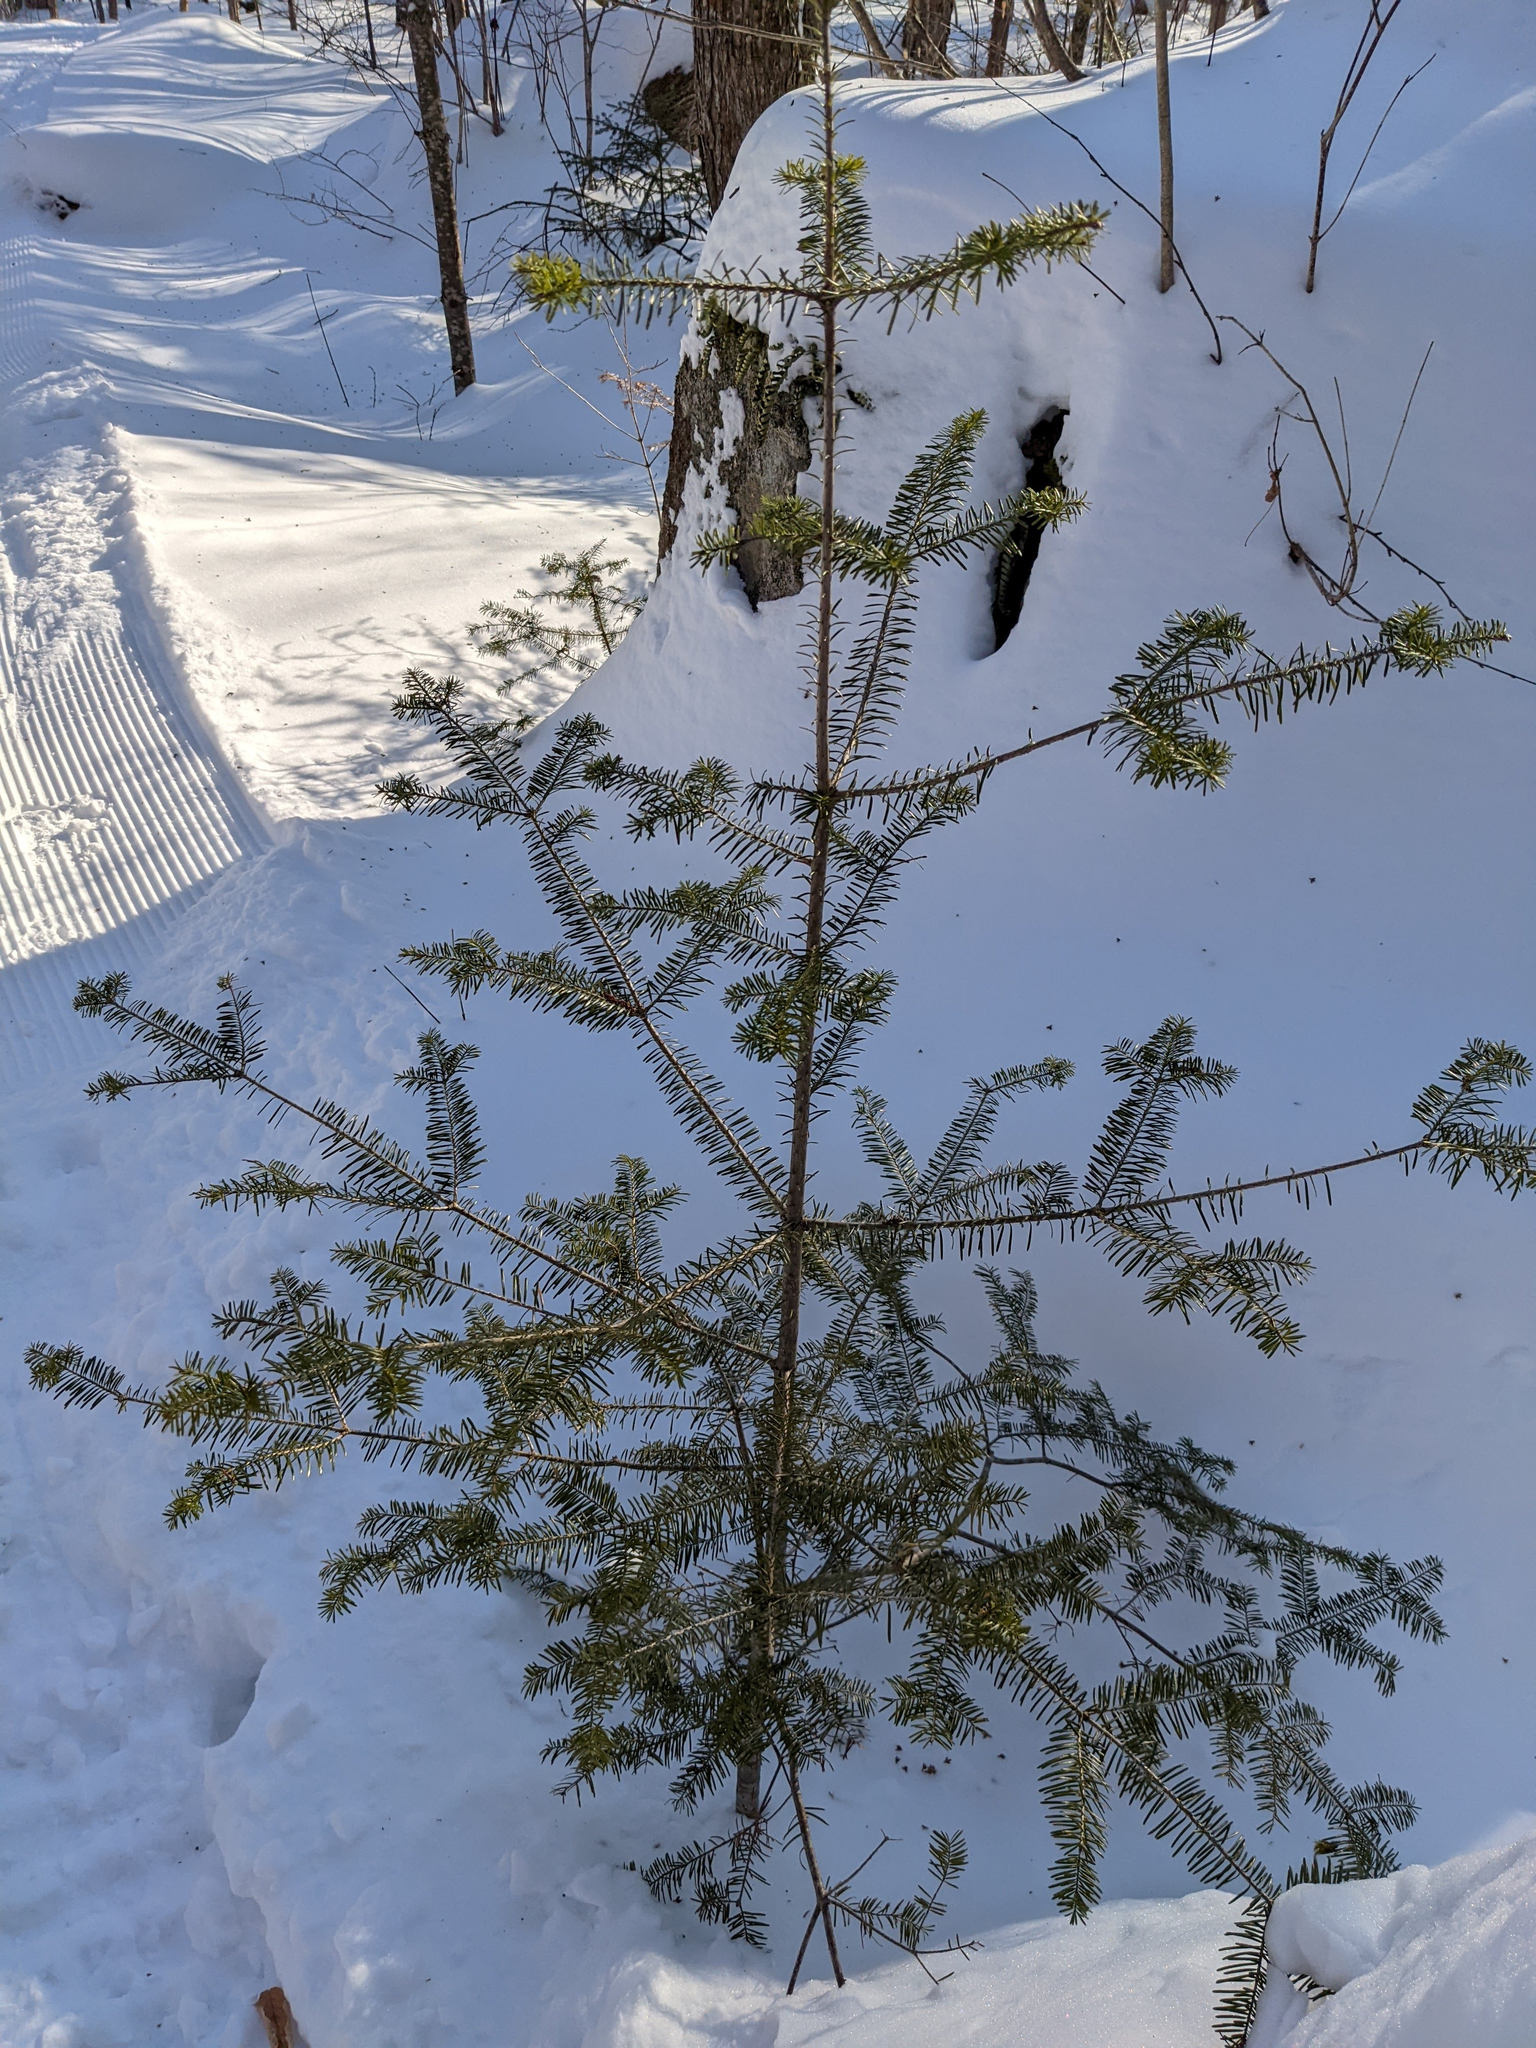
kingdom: Plantae
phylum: Tracheophyta
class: Pinopsida
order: Pinales
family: Pinaceae
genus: Abies
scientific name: Abies balsamea
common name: Balsam fir
